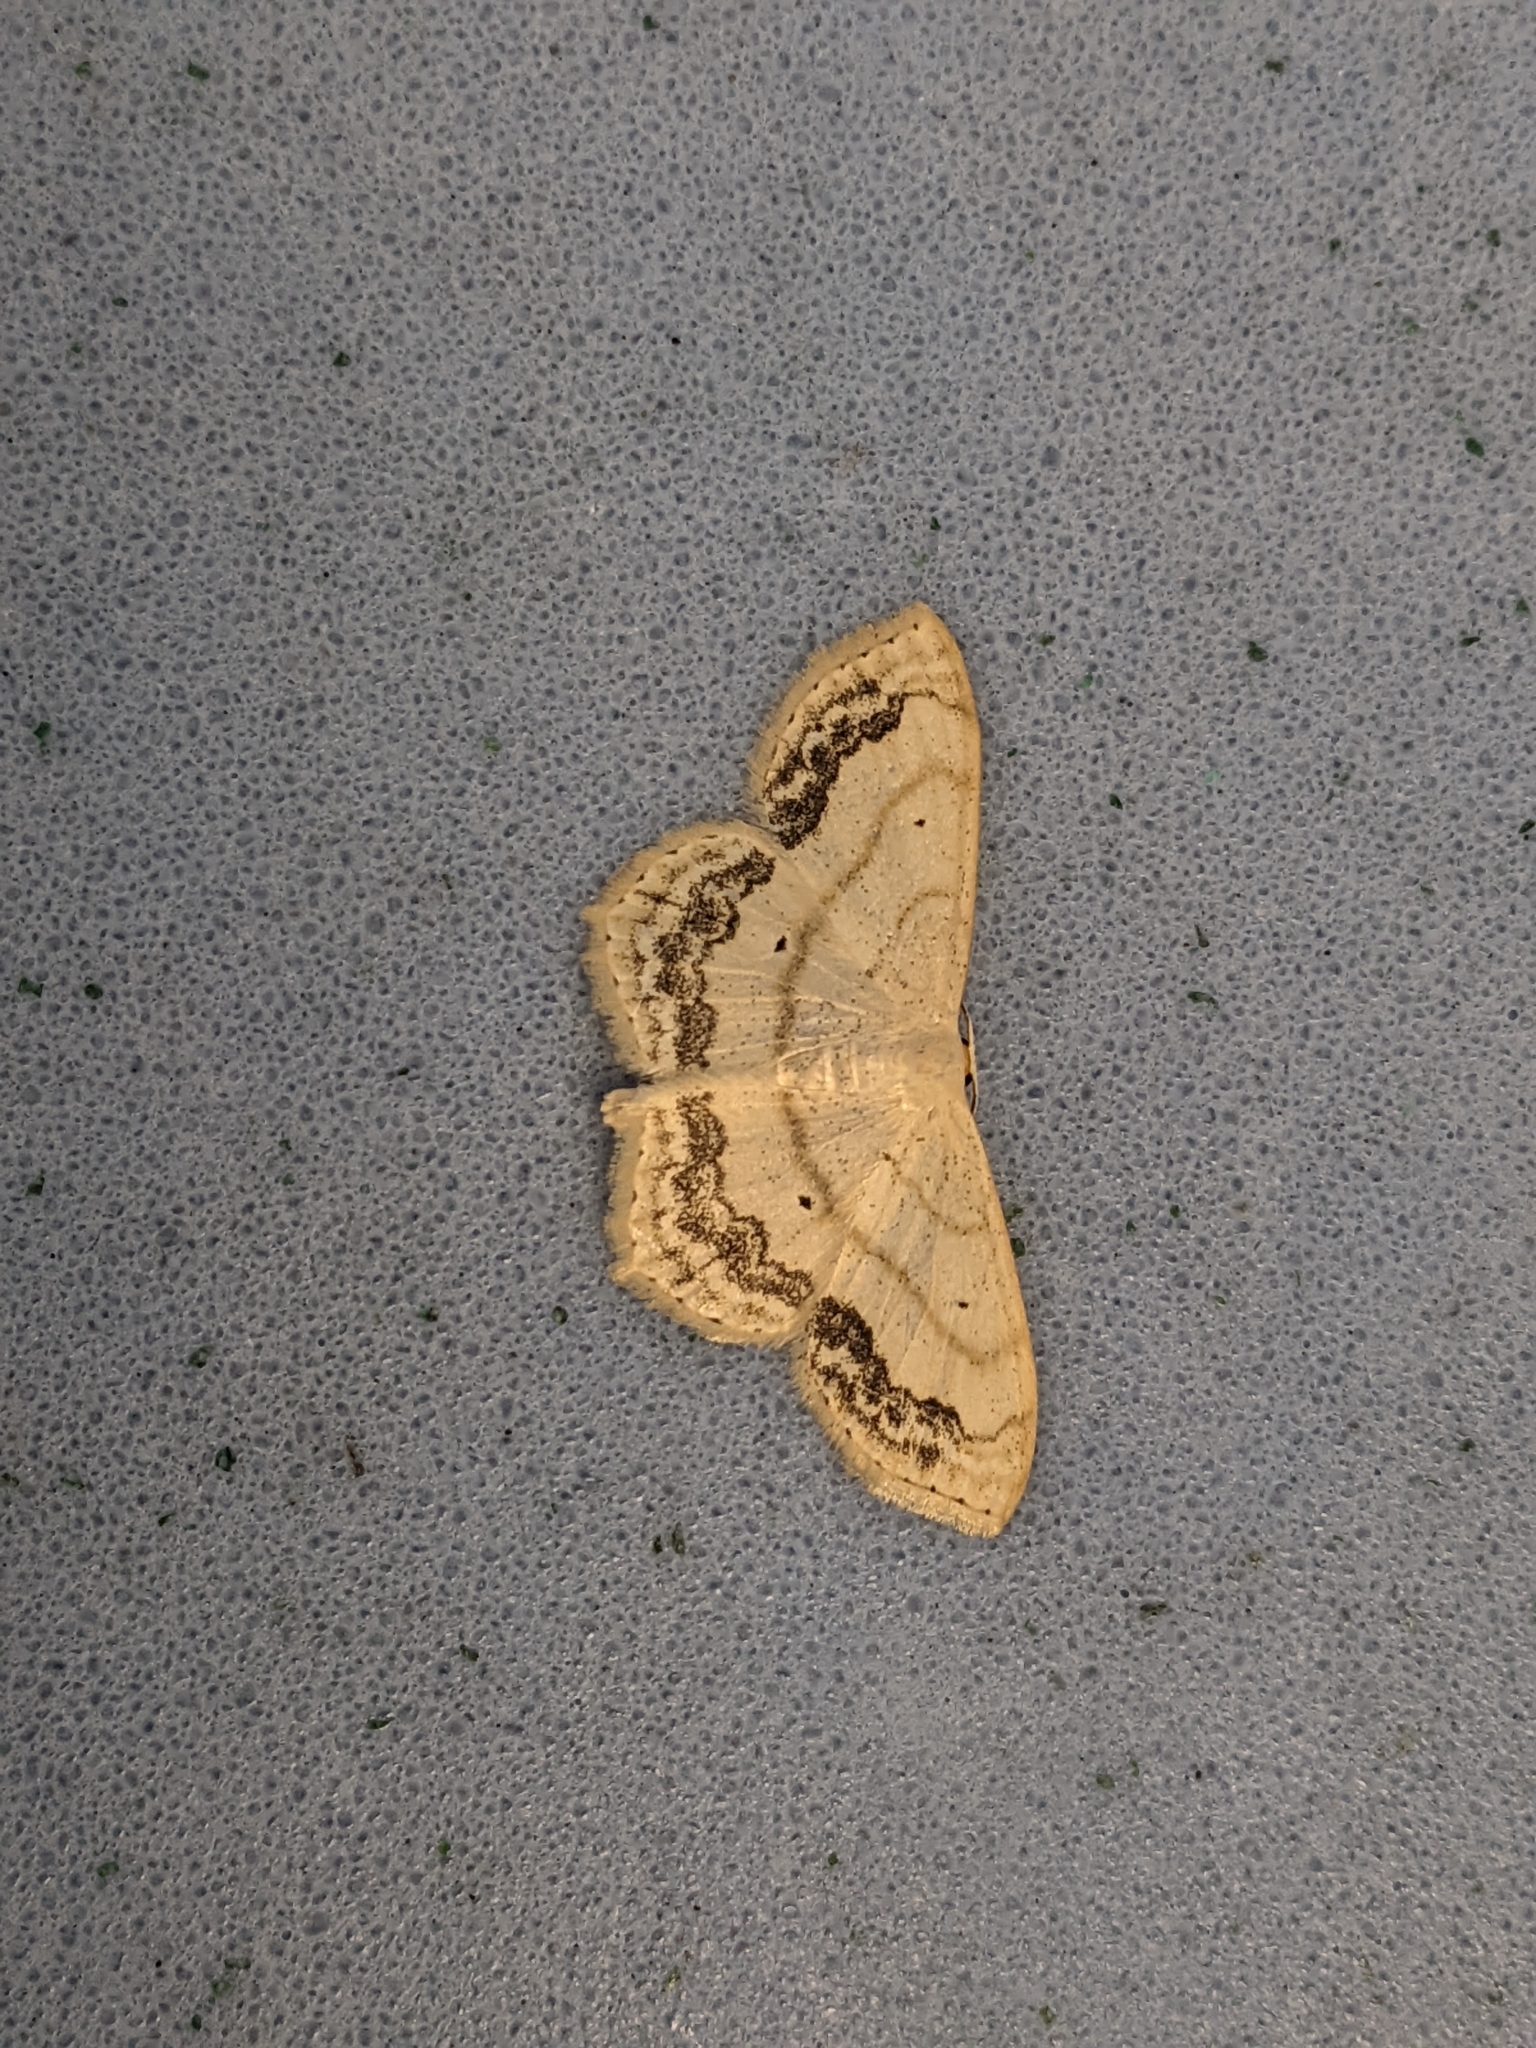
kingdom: Animalia
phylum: Arthropoda
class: Insecta
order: Lepidoptera
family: Geometridae
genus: Scopula
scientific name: Scopula limboundata
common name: Large lace border
